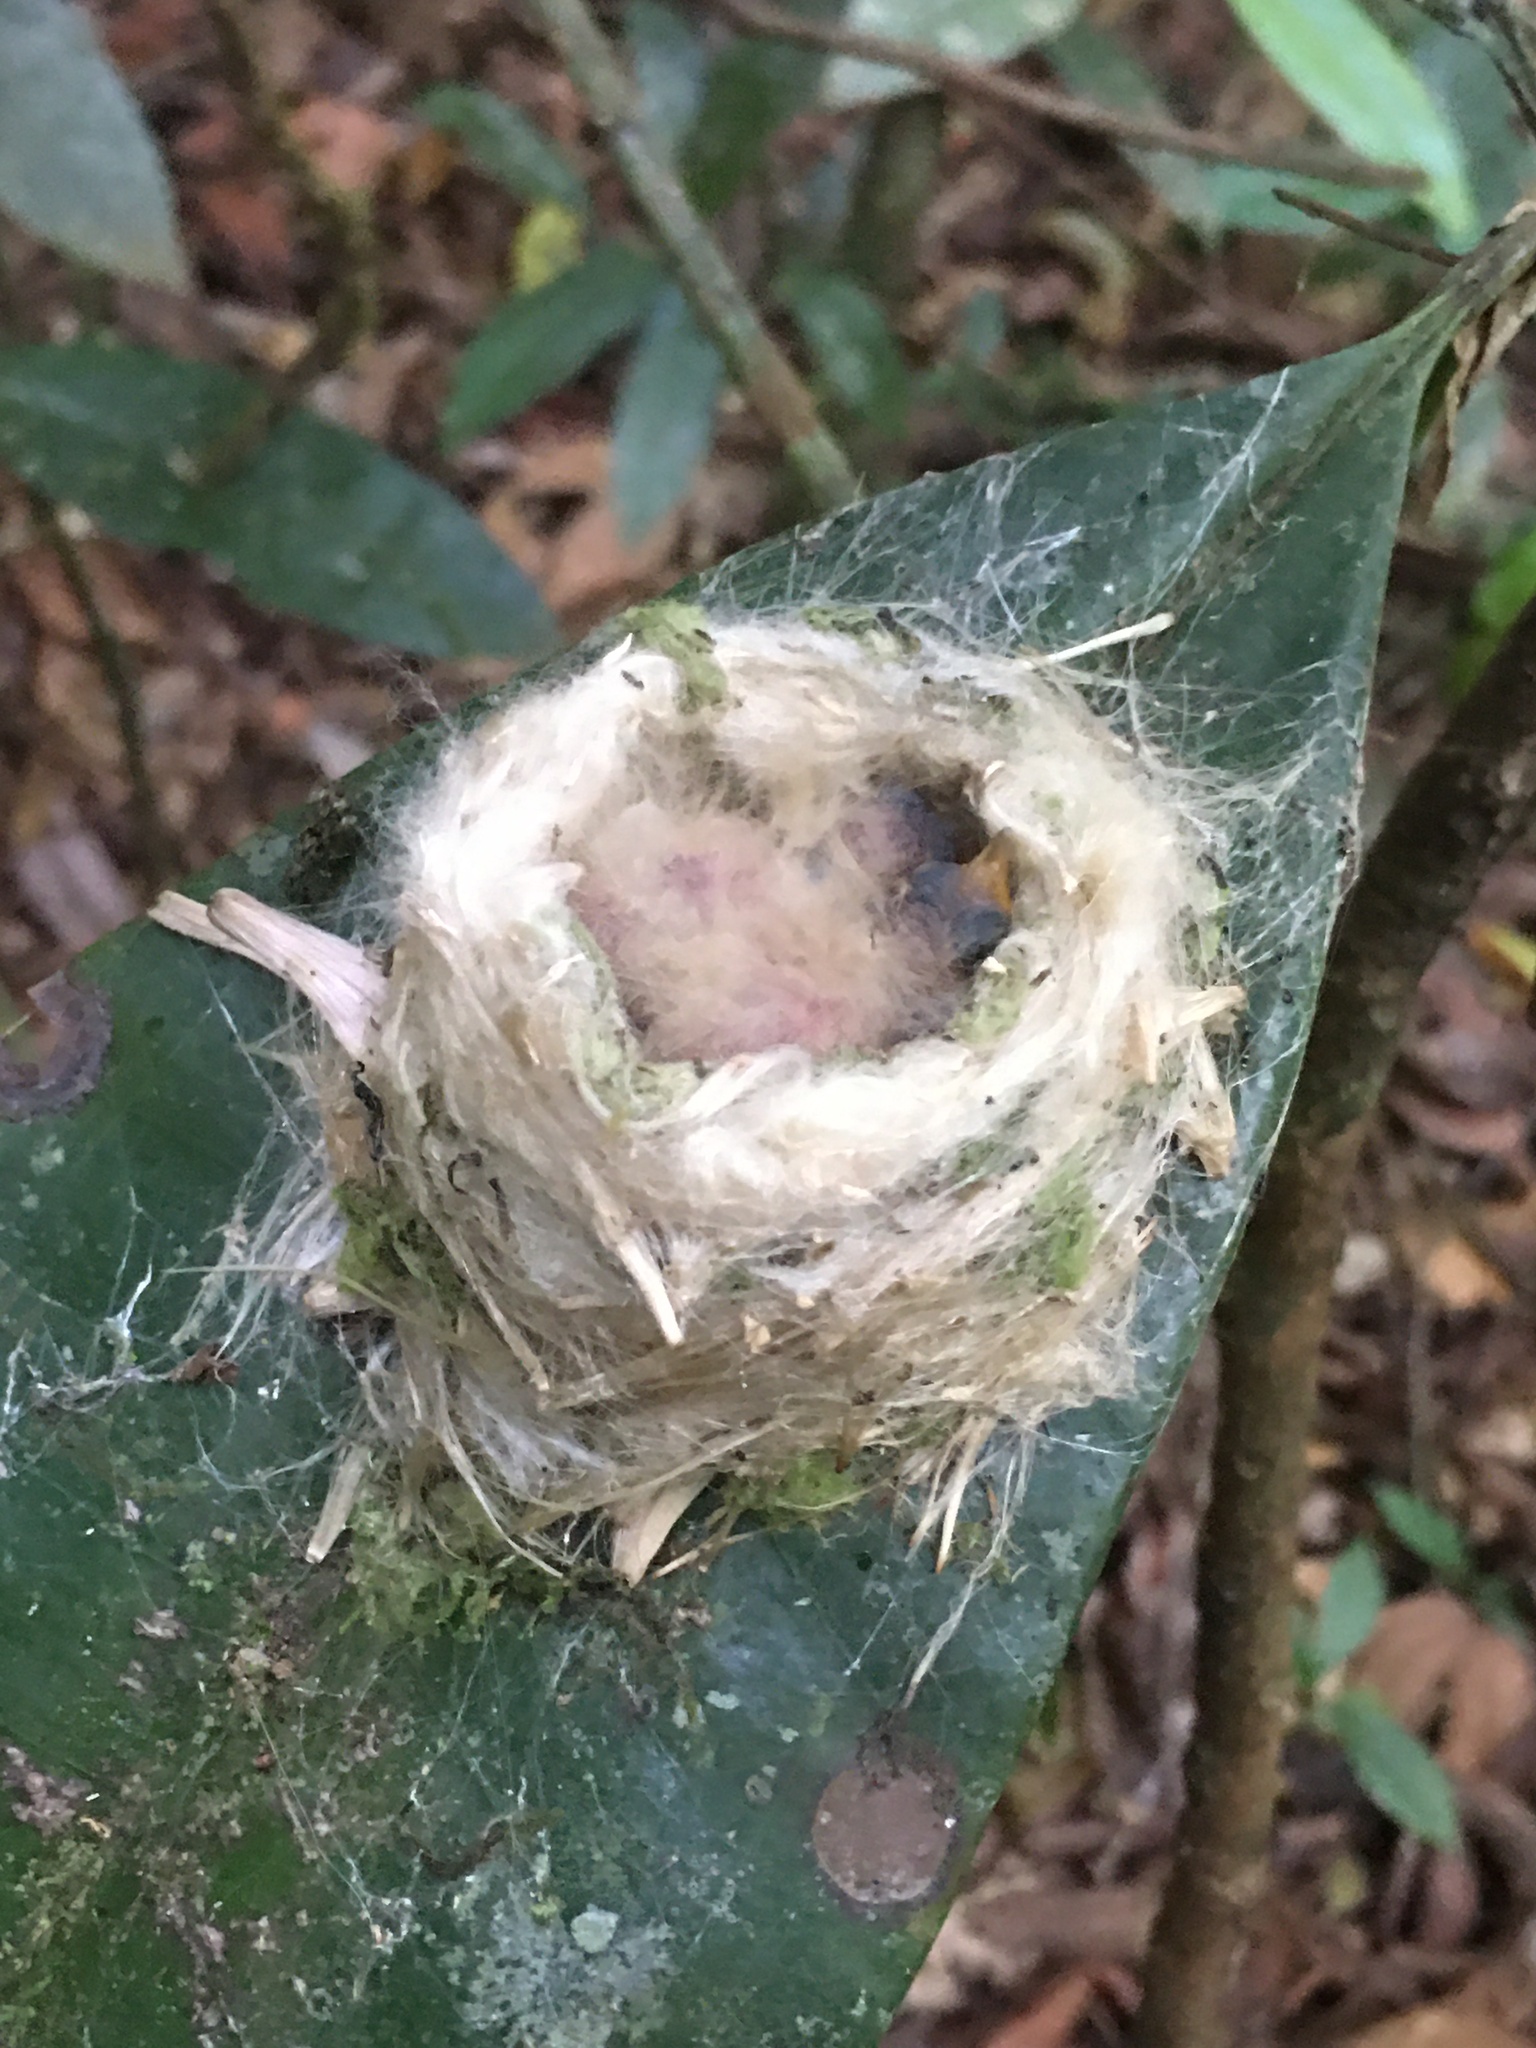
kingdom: Animalia
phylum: Chordata
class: Aves
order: Apodiformes
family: Trochilidae
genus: Florisuga
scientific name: Florisuga fusca
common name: Black jacobin
